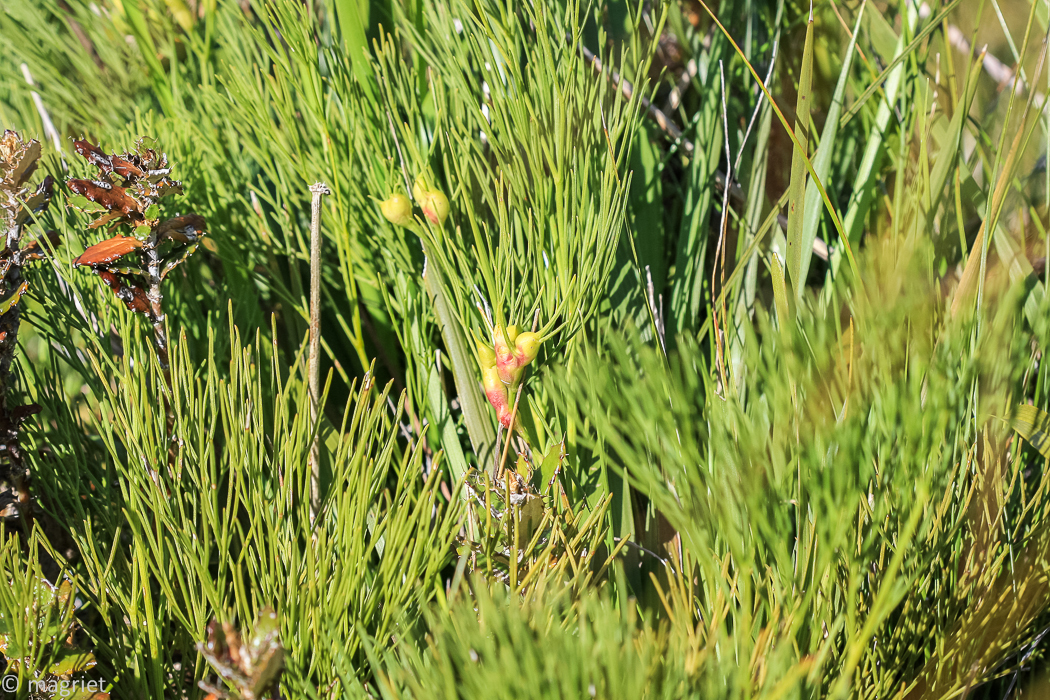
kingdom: Plantae
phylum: Tracheophyta
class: Magnoliopsida
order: Apiales
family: Apiaceae
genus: Nanobubon
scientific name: Nanobubon strictum
